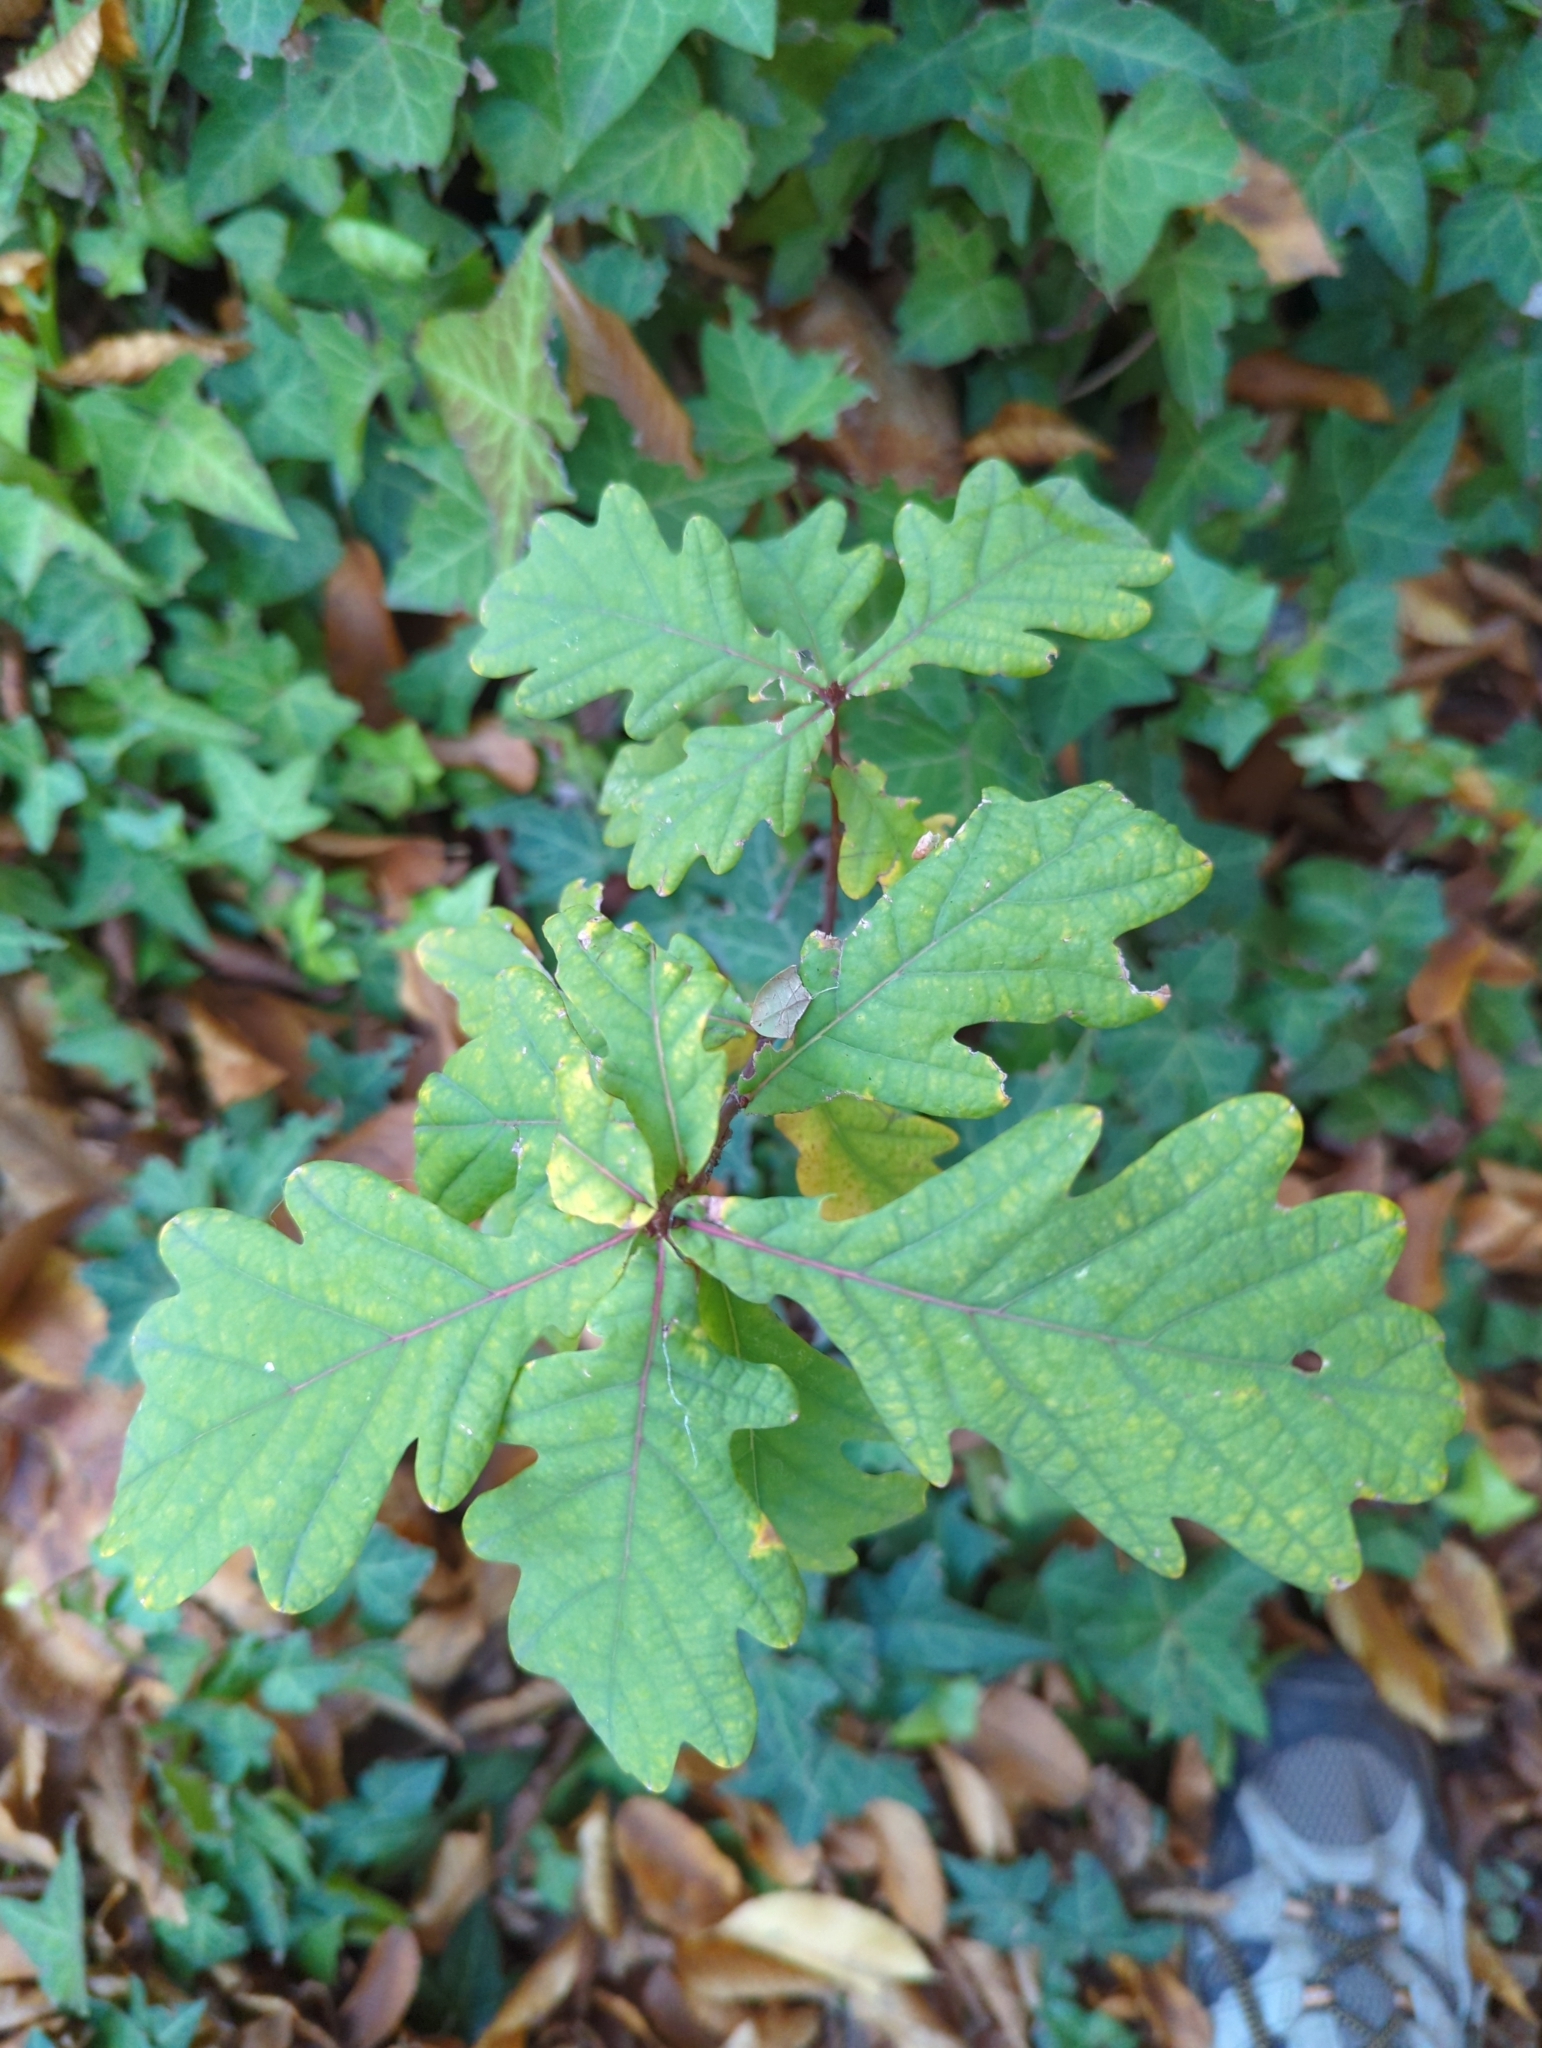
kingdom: Plantae
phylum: Tracheophyta
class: Magnoliopsida
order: Fagales
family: Fagaceae
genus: Quercus
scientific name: Quercus robur
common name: Pedunculate oak
